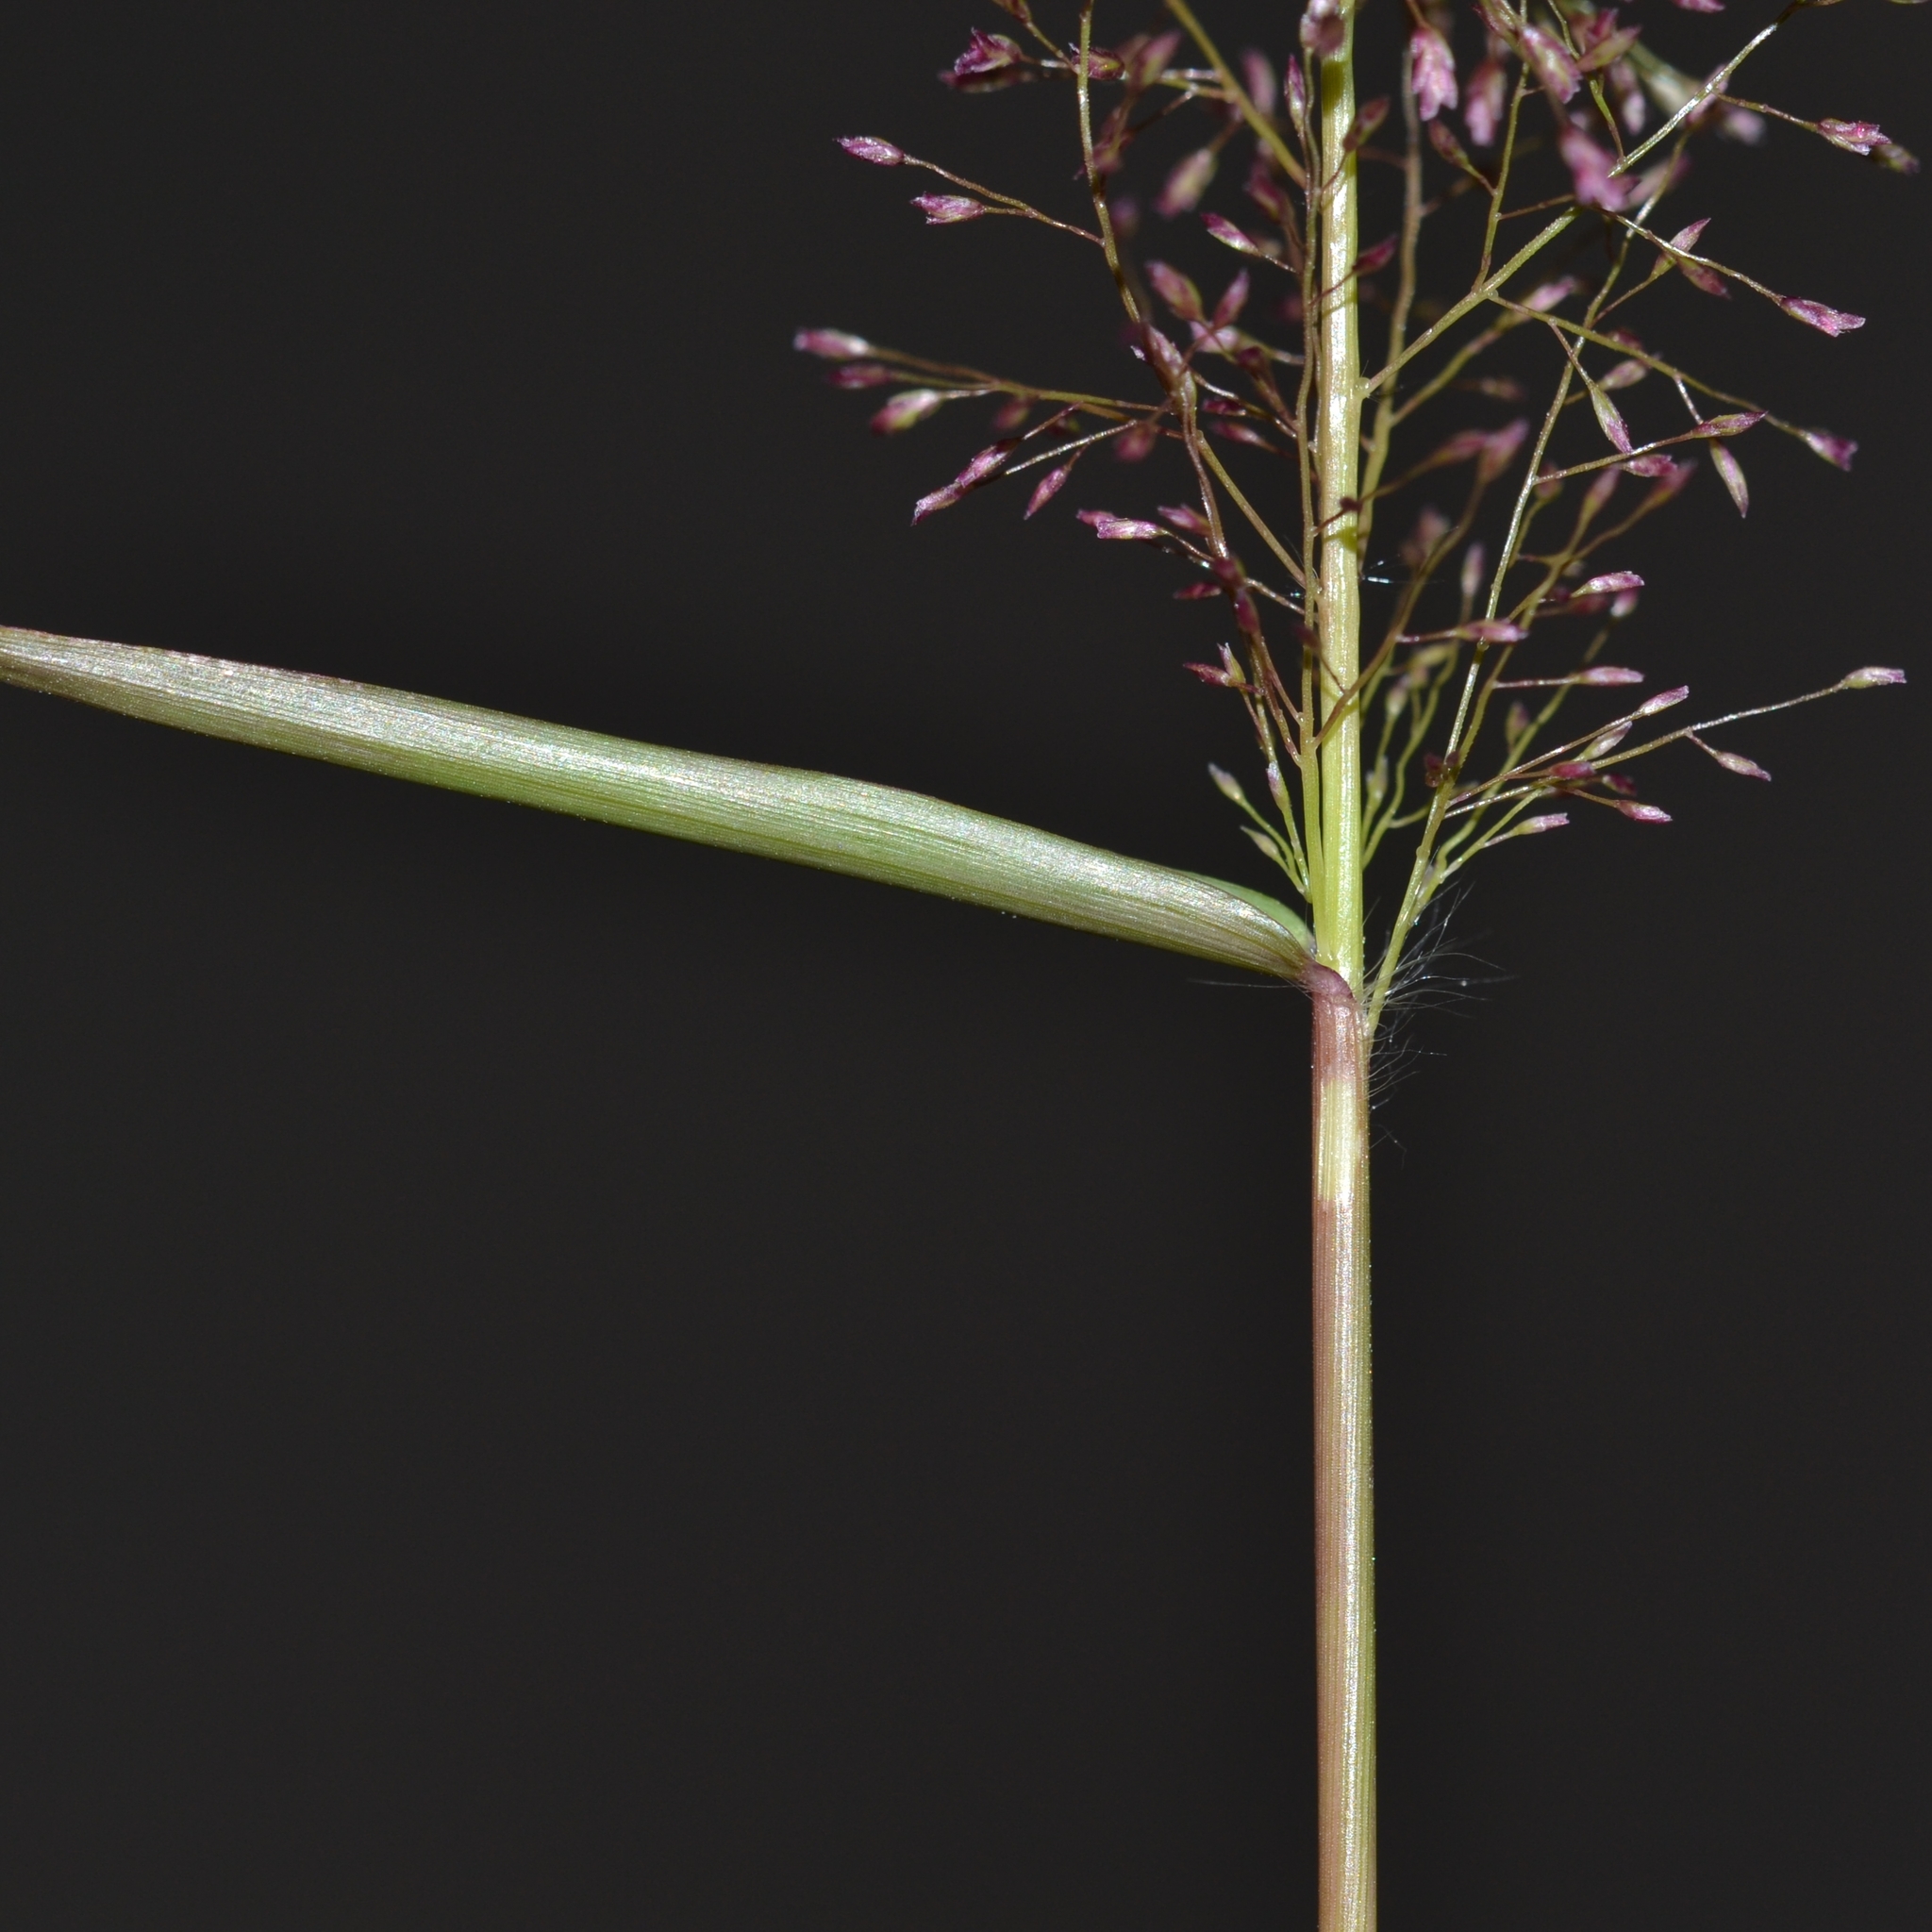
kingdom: Plantae
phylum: Tracheophyta
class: Liliopsida
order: Poales
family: Poaceae
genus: Eragrostis
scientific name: Eragrostis tenella
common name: Japanese lovegrass
